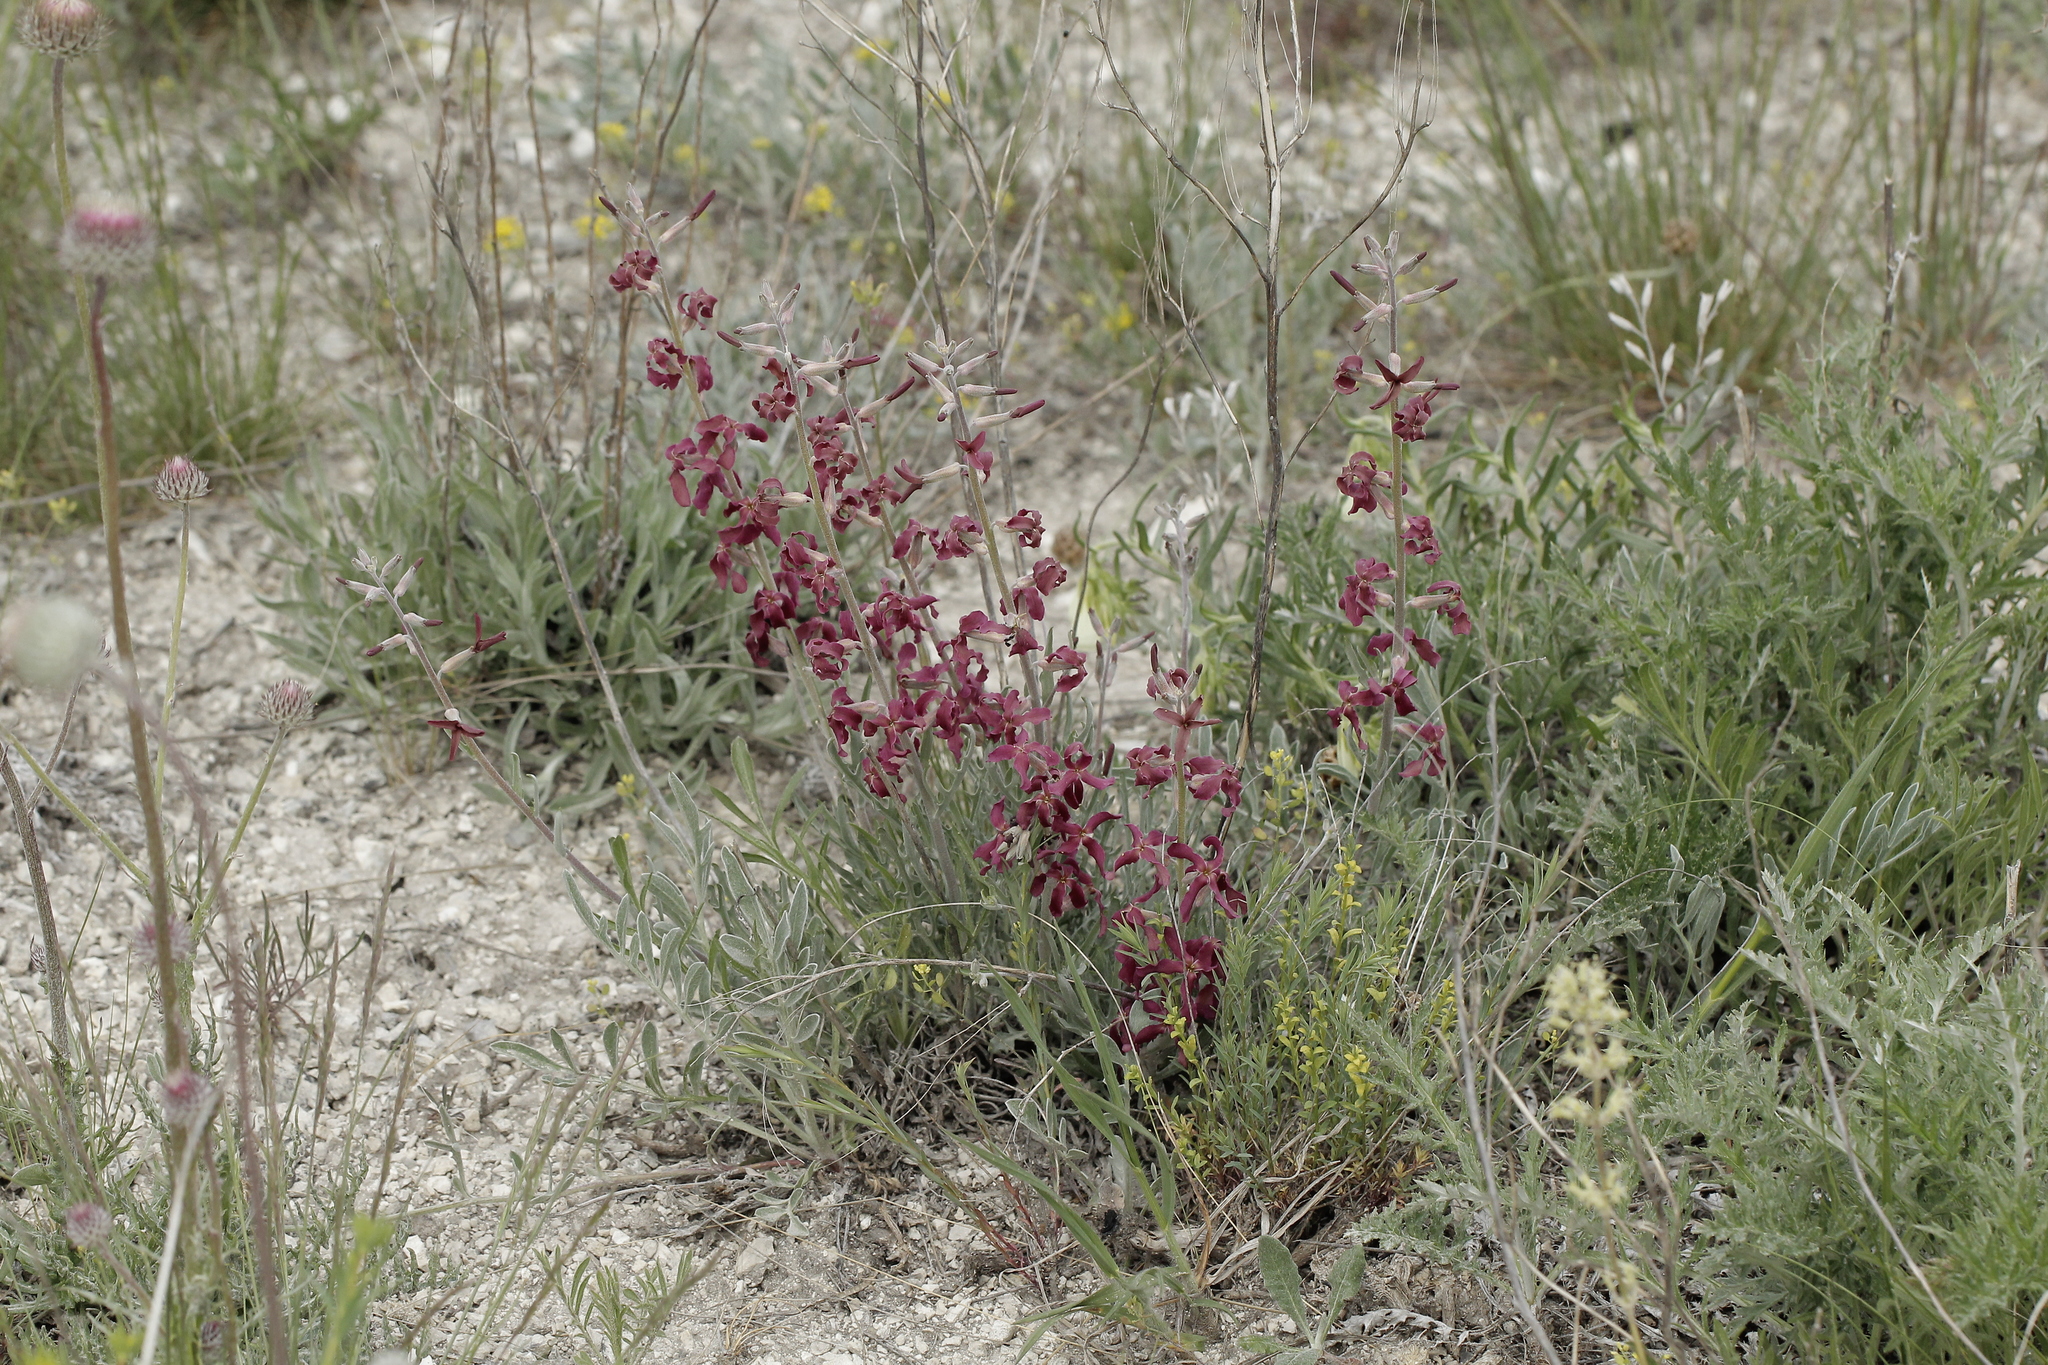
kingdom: Plantae
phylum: Tracheophyta
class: Magnoliopsida
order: Brassicales
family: Brassicaceae
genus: Matthiola
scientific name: Matthiola fragrans
